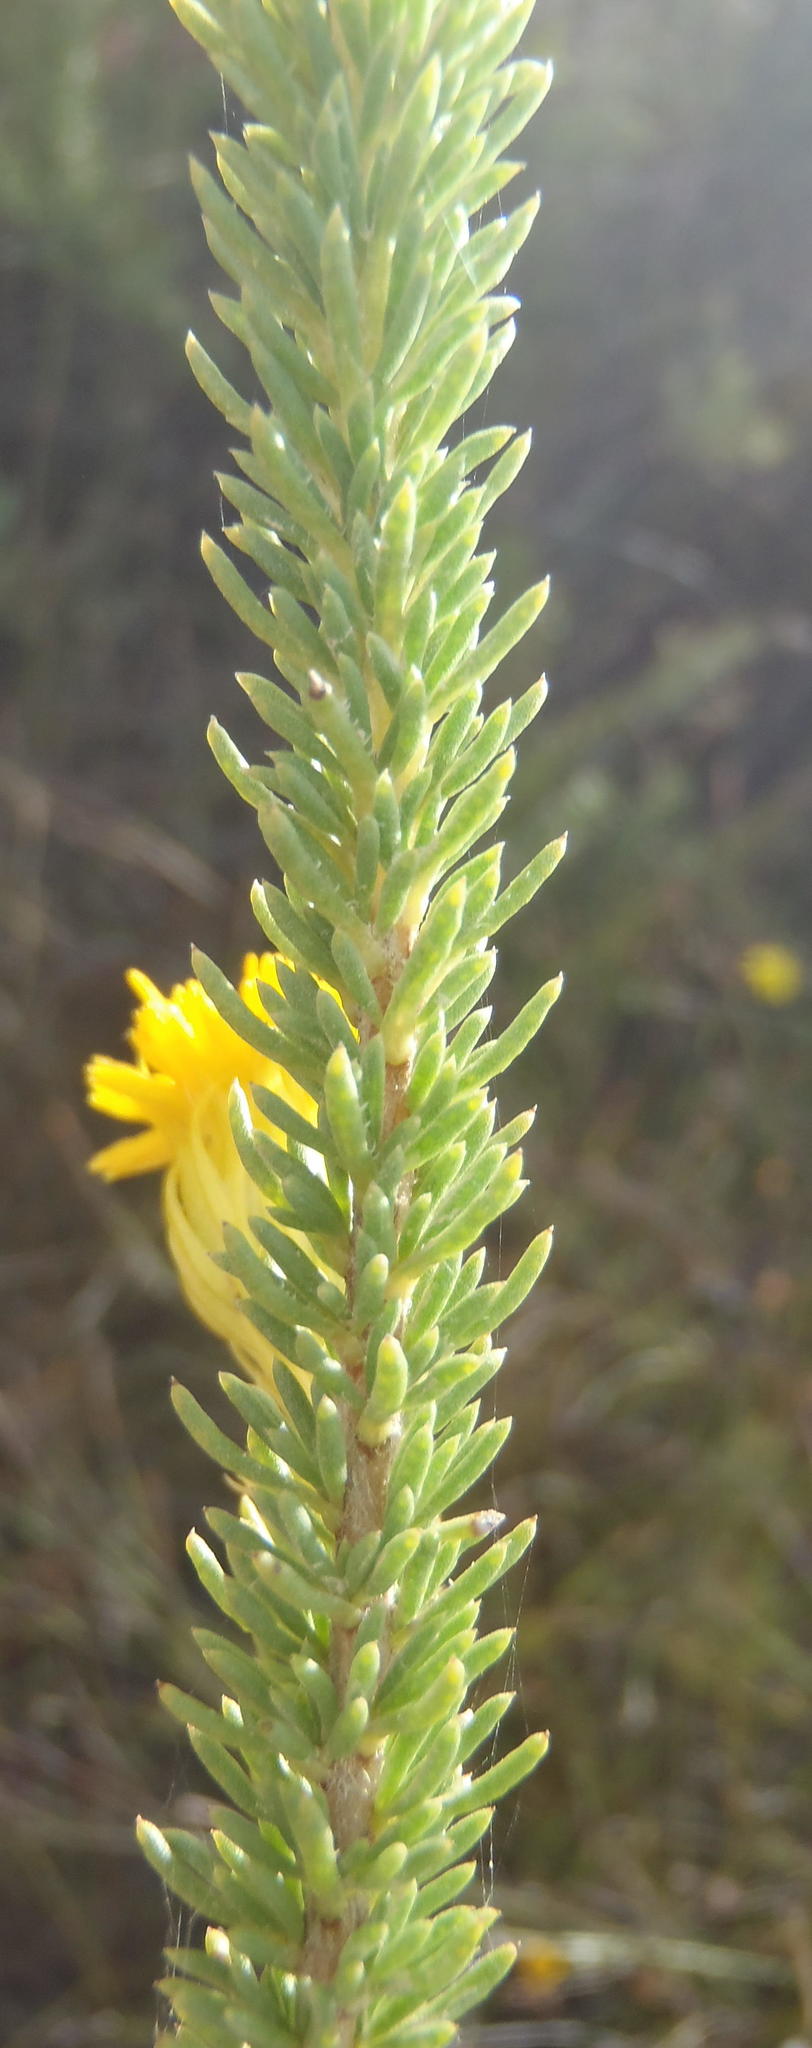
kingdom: Plantae
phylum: Tracheophyta
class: Magnoliopsida
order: Asterales
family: Asteraceae
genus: Pteronia
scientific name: Pteronia camphorata
